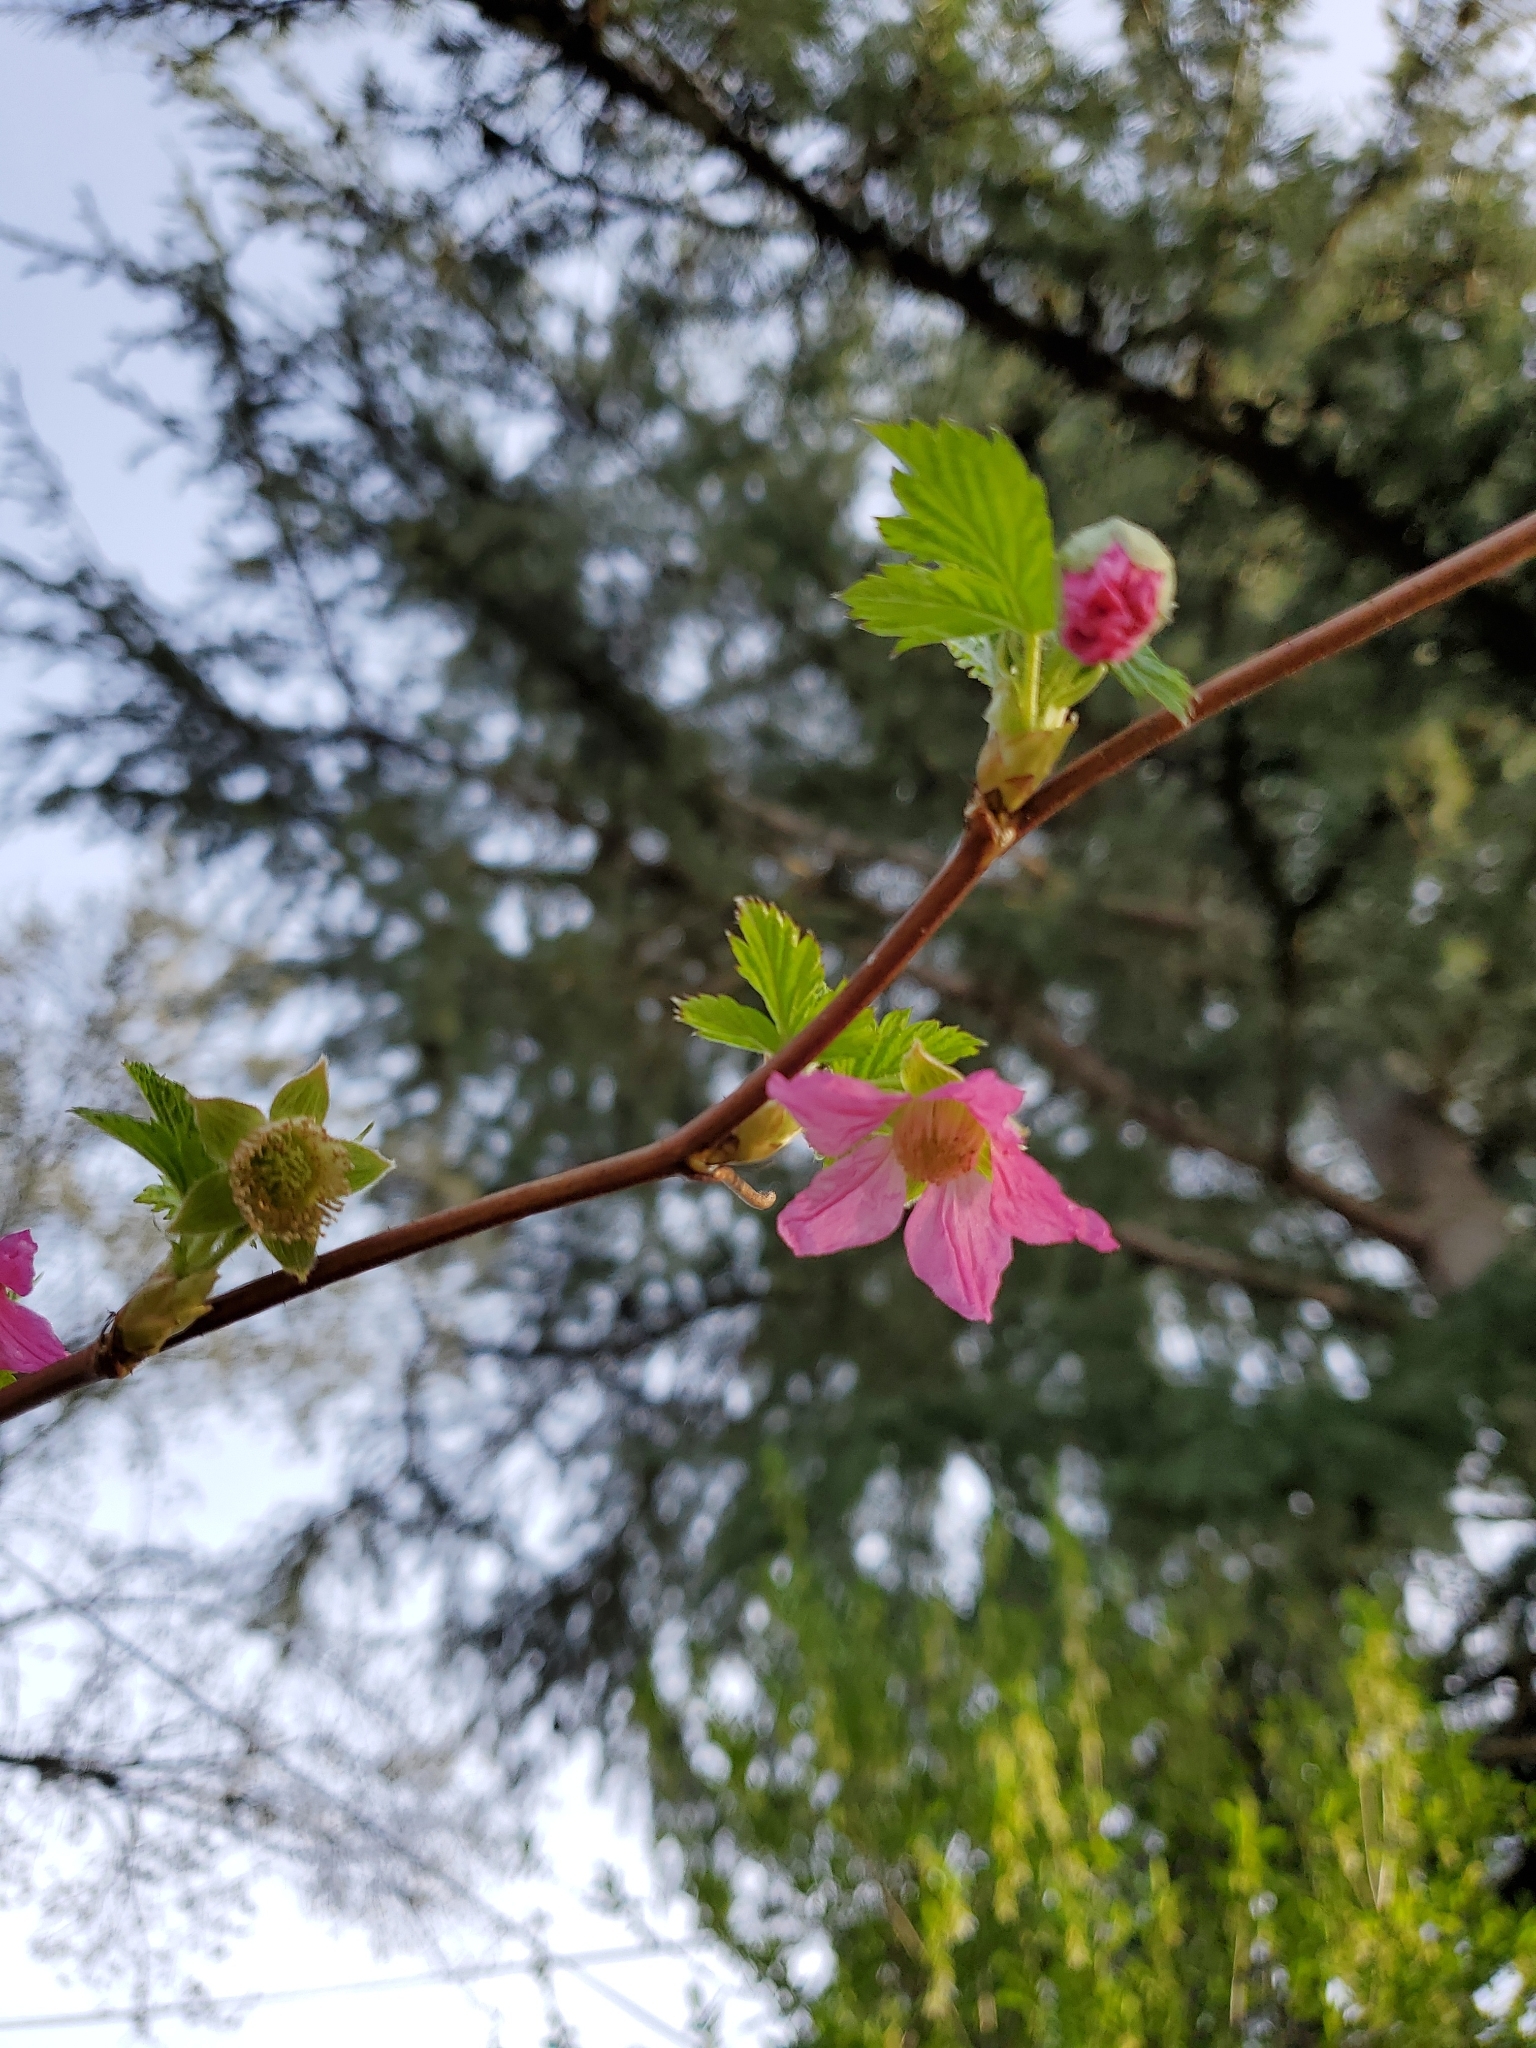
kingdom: Plantae
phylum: Tracheophyta
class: Magnoliopsida
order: Rosales
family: Rosaceae
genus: Rubus
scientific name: Rubus spectabilis
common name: Salmonberry
